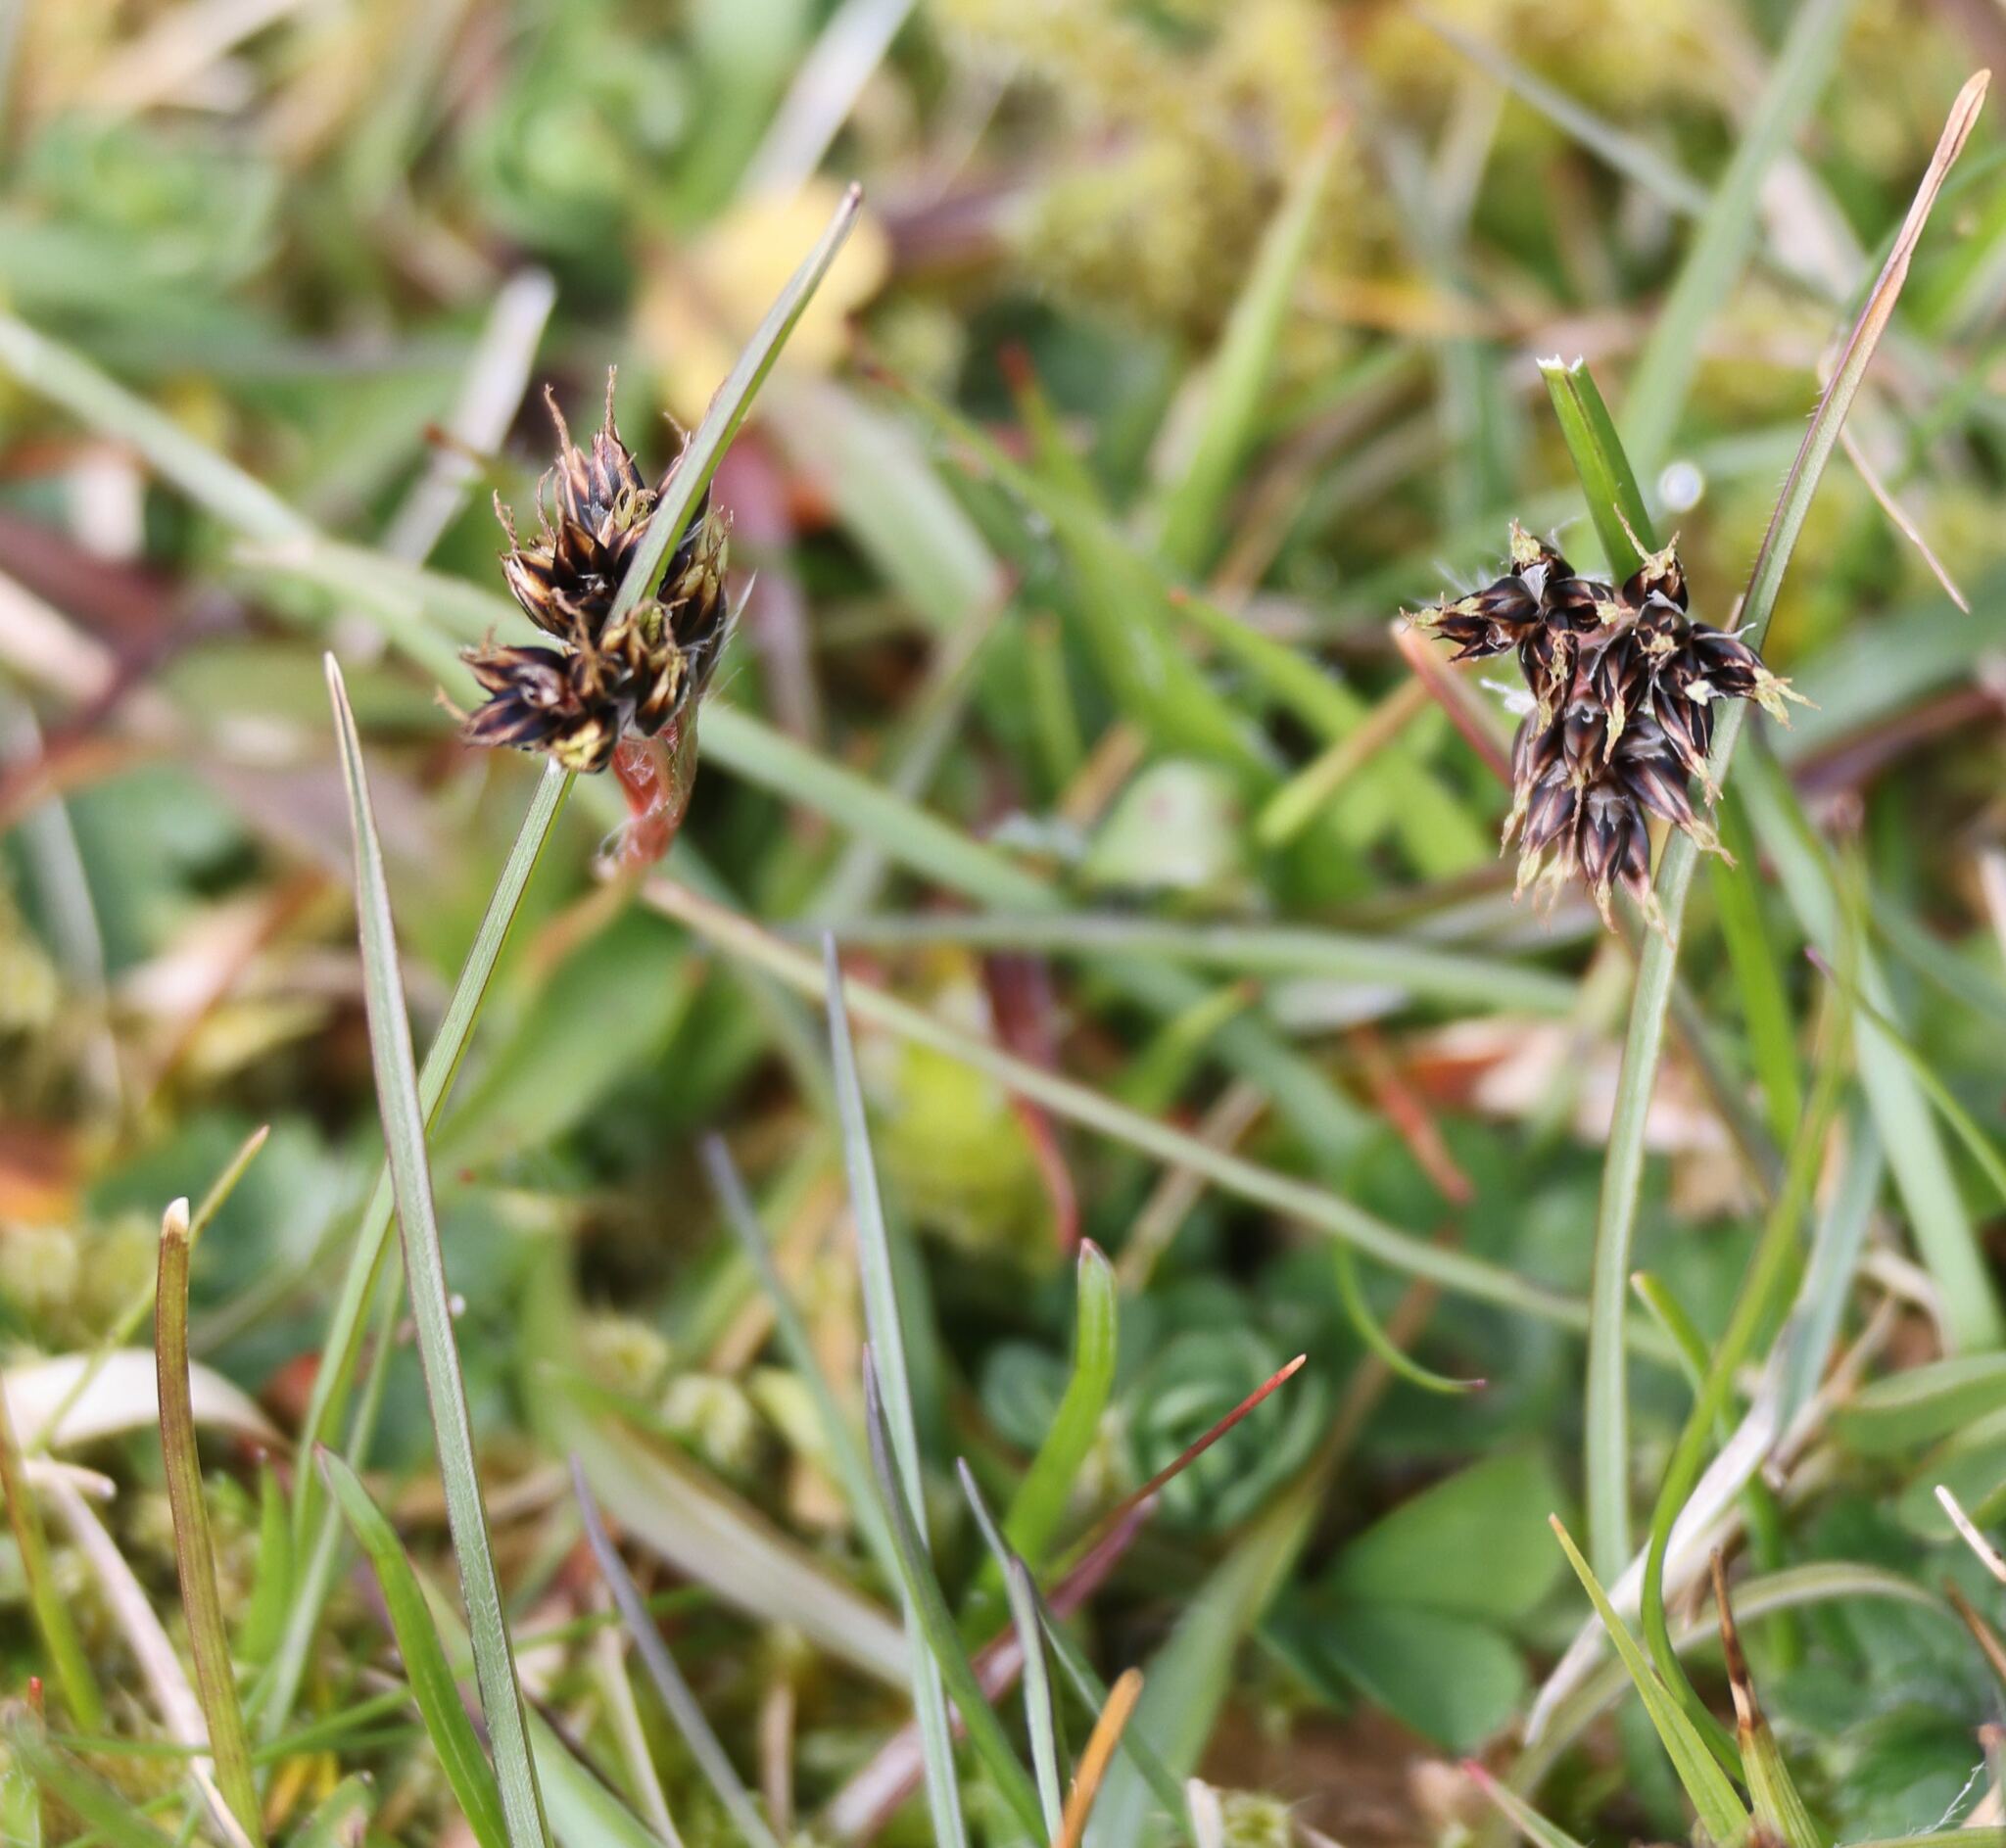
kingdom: Plantae
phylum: Tracheophyta
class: Liliopsida
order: Poales
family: Juncaceae
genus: Luzula
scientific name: Luzula campestris
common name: Field wood-rush
